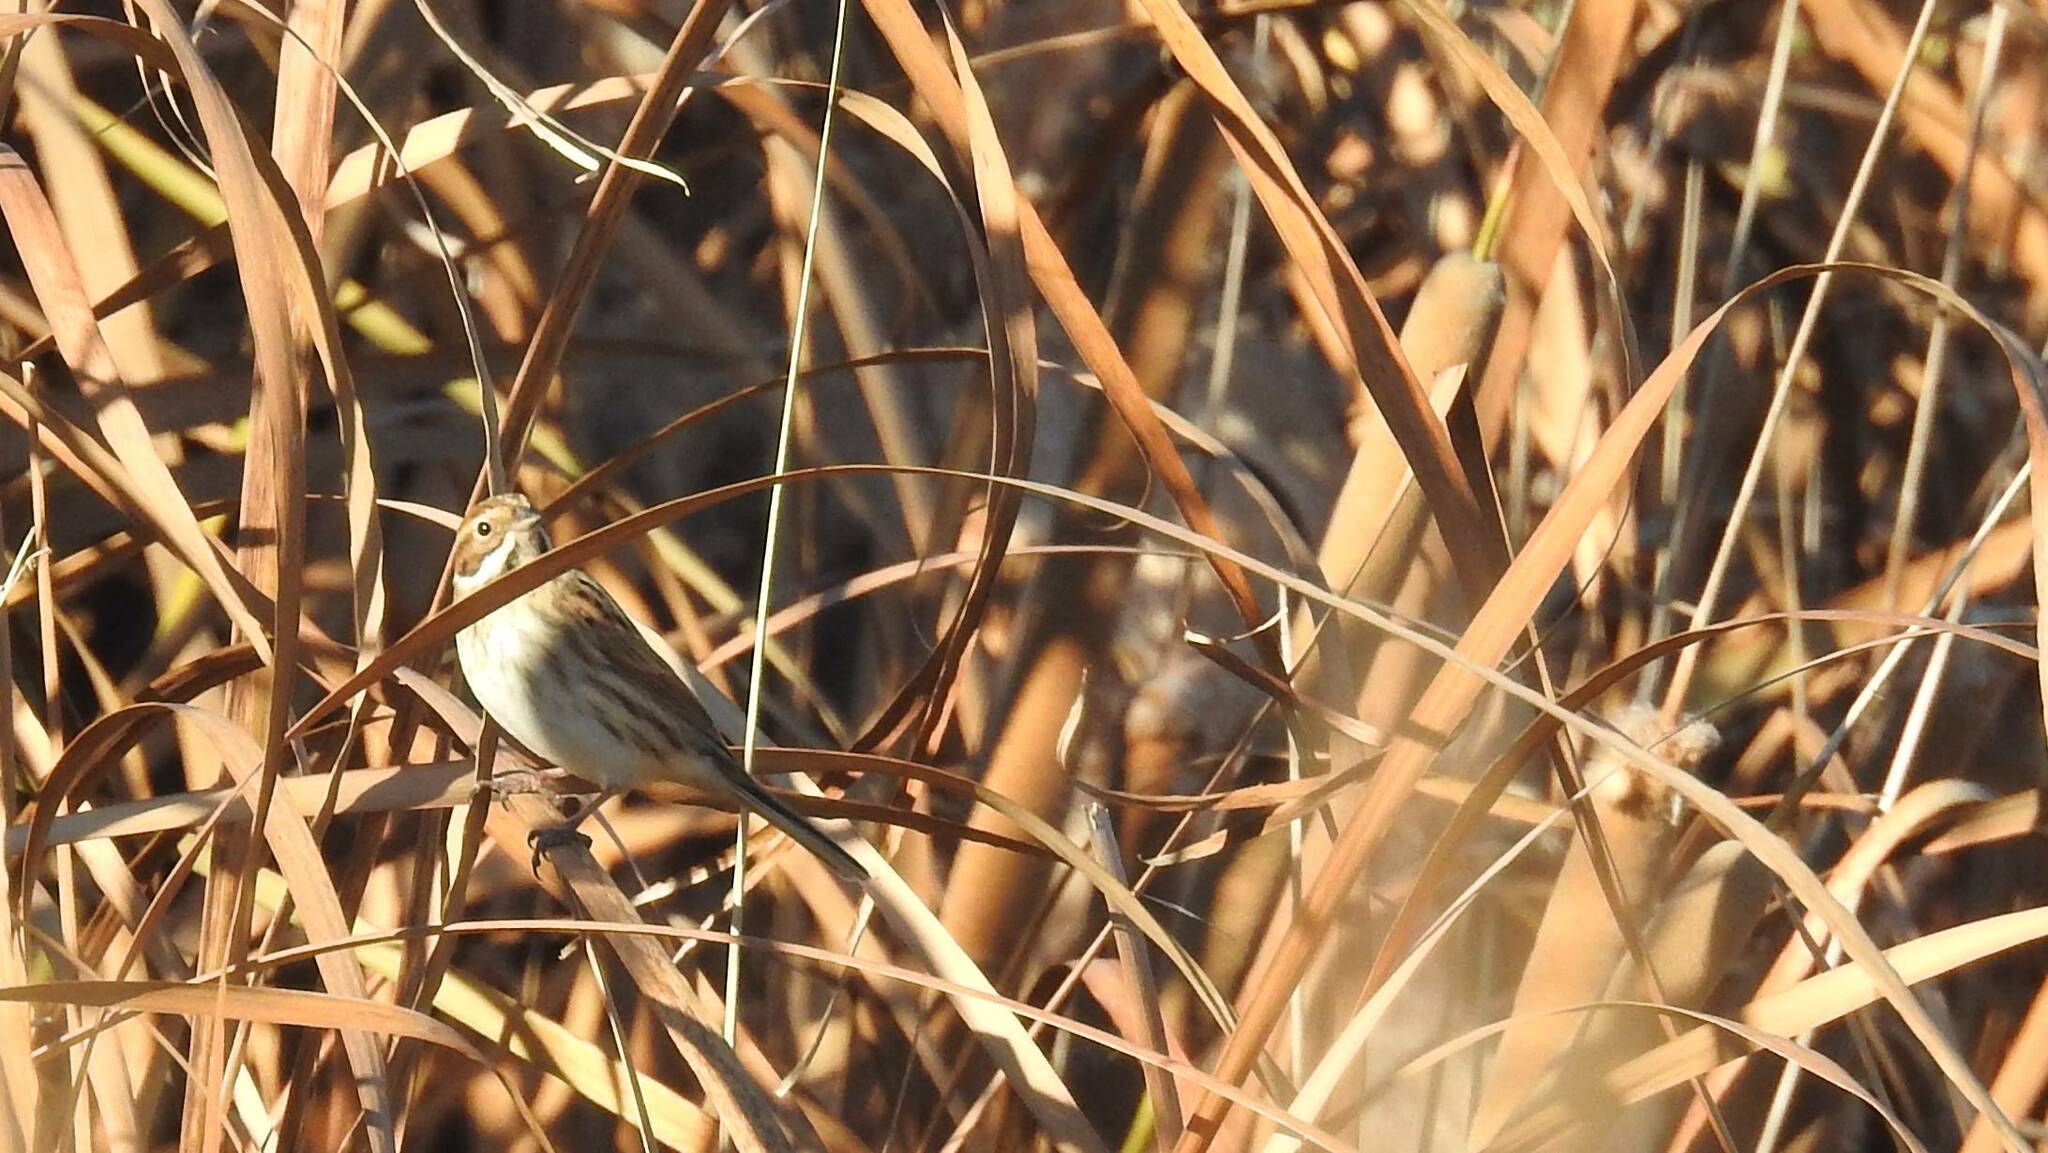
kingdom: Animalia
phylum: Chordata
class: Aves
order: Passeriformes
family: Emberizidae
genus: Emberiza
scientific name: Emberiza schoeniclus
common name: Reed bunting
